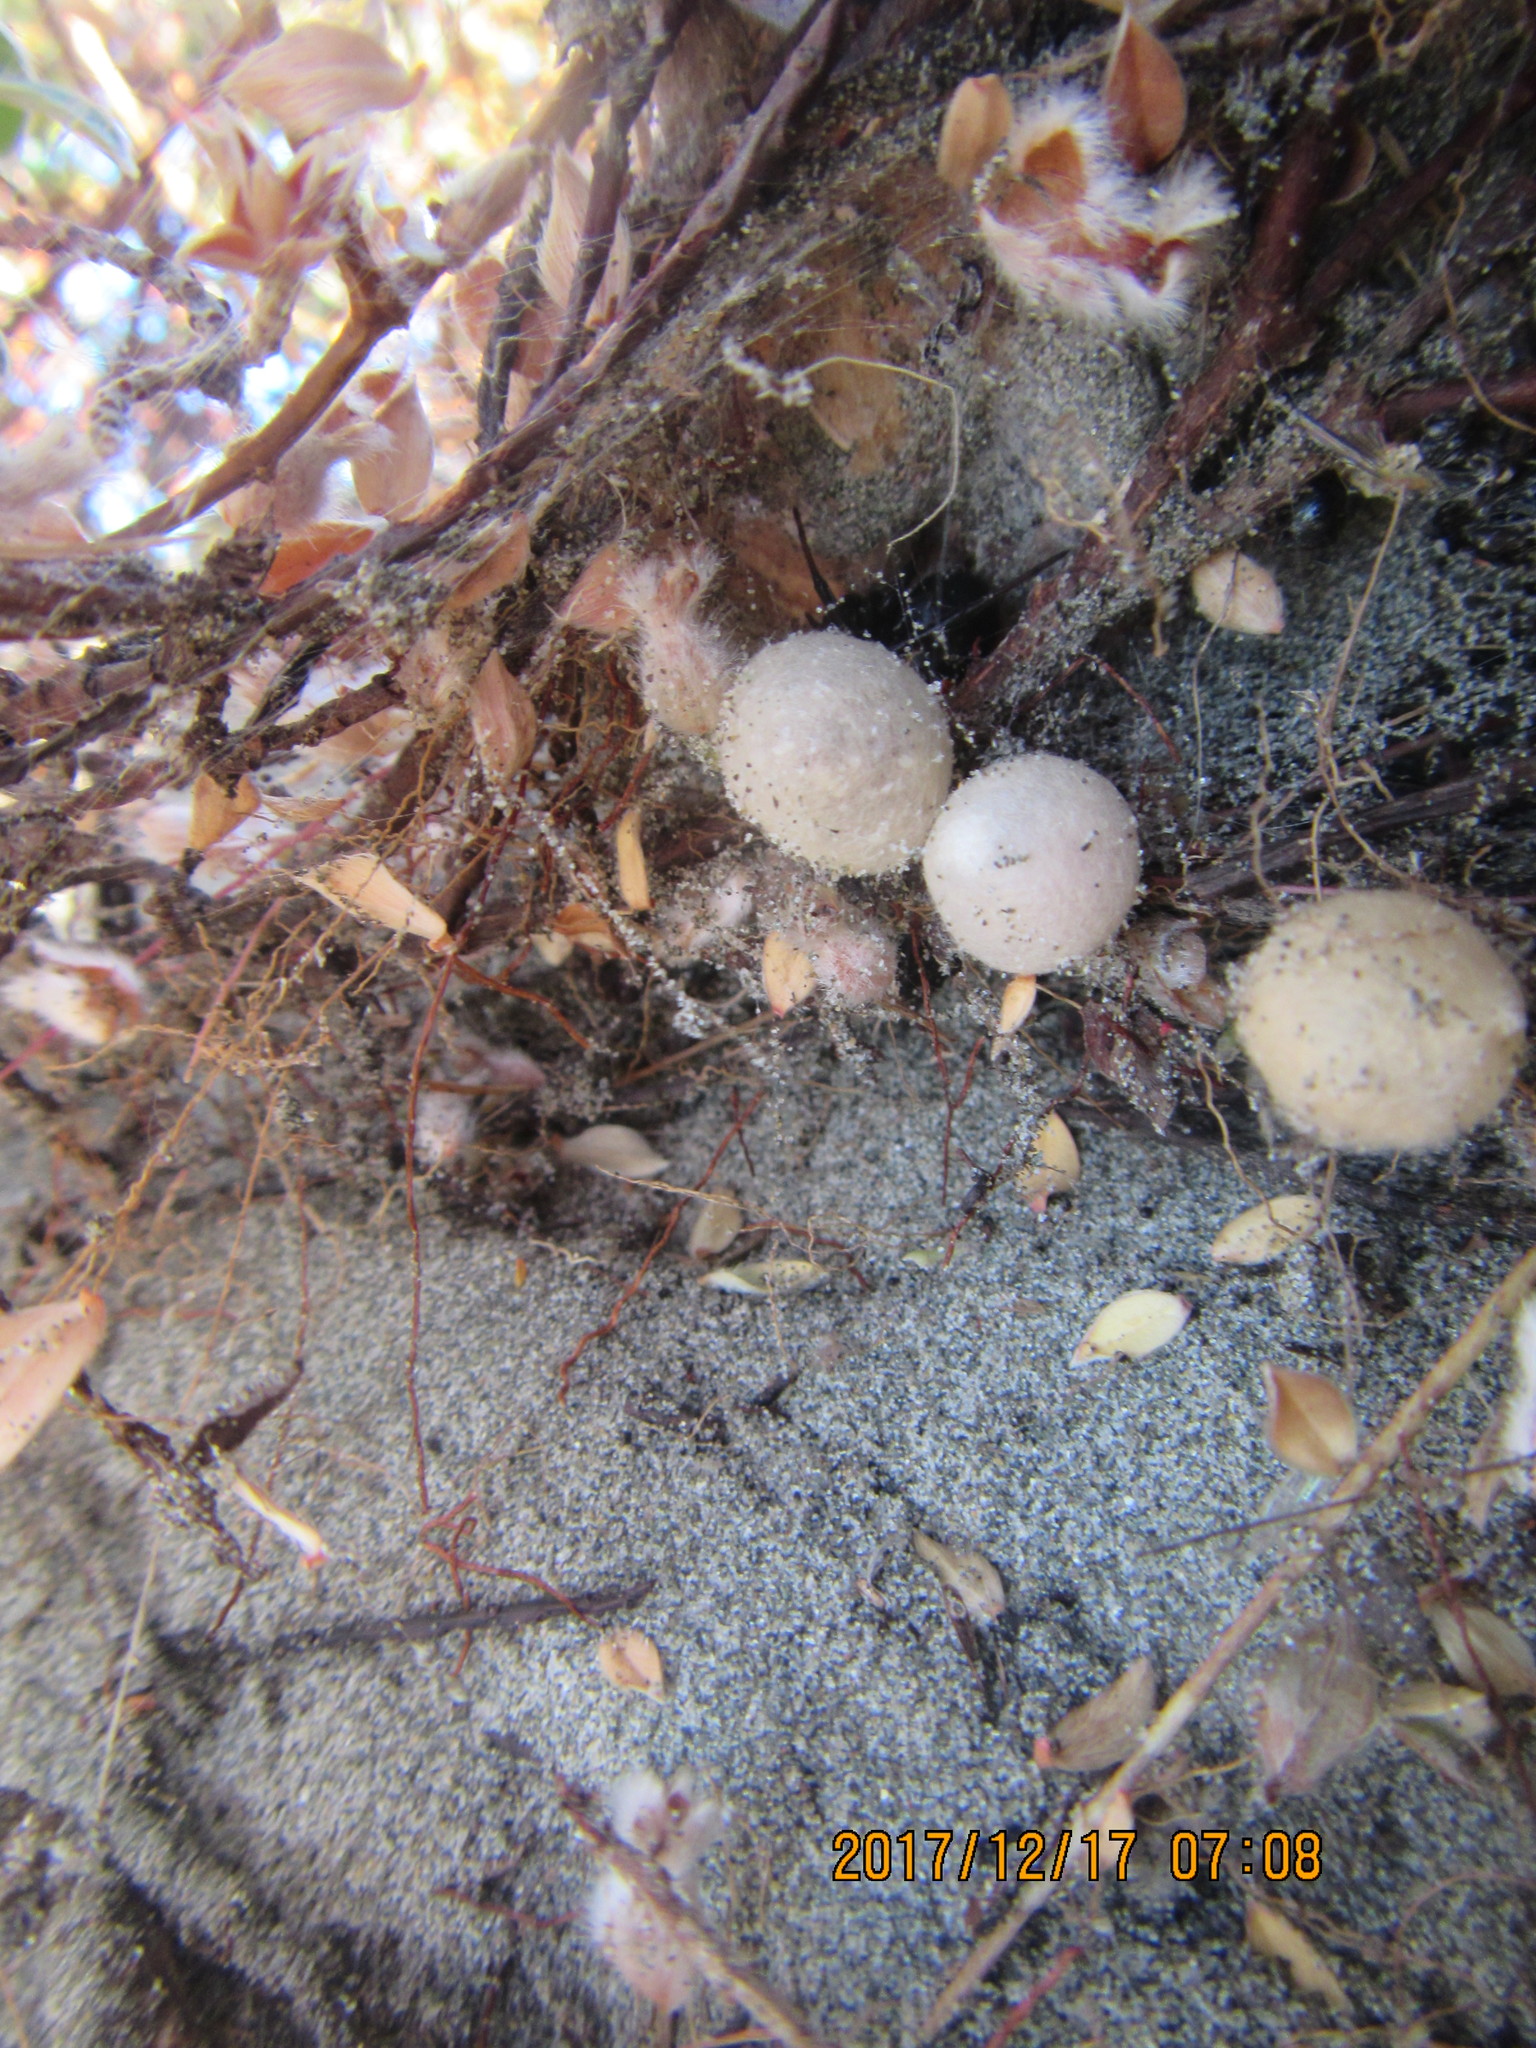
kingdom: Animalia
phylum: Arthropoda
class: Arachnida
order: Araneae
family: Theridiidae
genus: Latrodectus
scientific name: Latrodectus katipo
